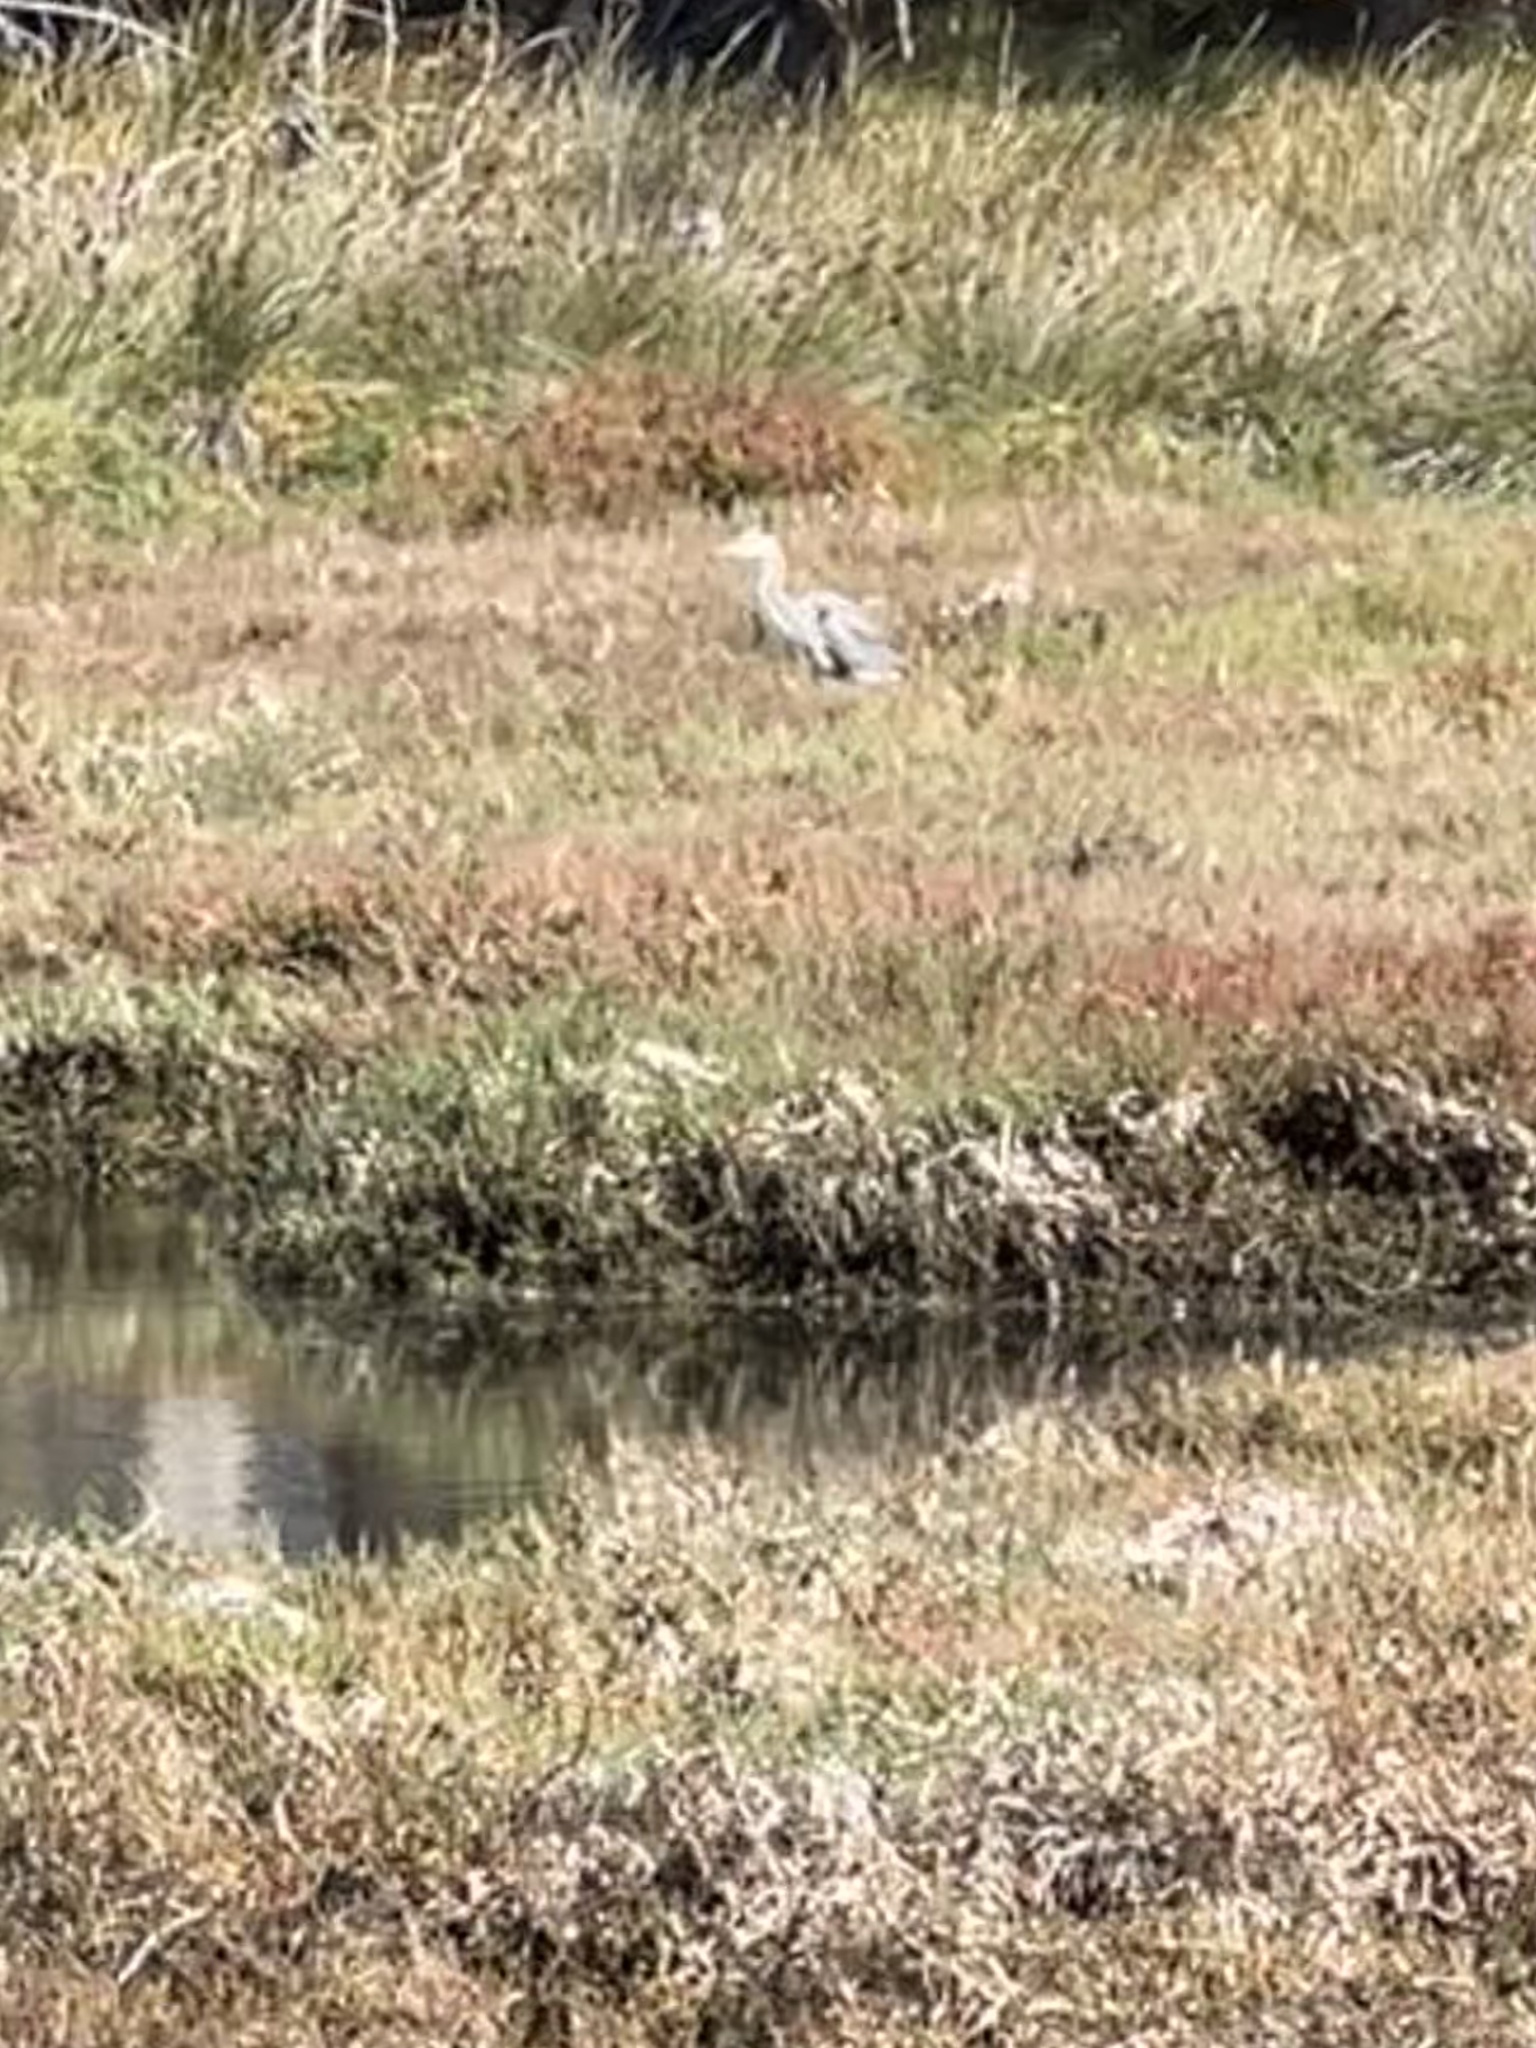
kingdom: Animalia
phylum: Chordata
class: Aves
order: Pelecaniformes
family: Ardeidae
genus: Ardea
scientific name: Ardea herodias
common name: Great blue heron
